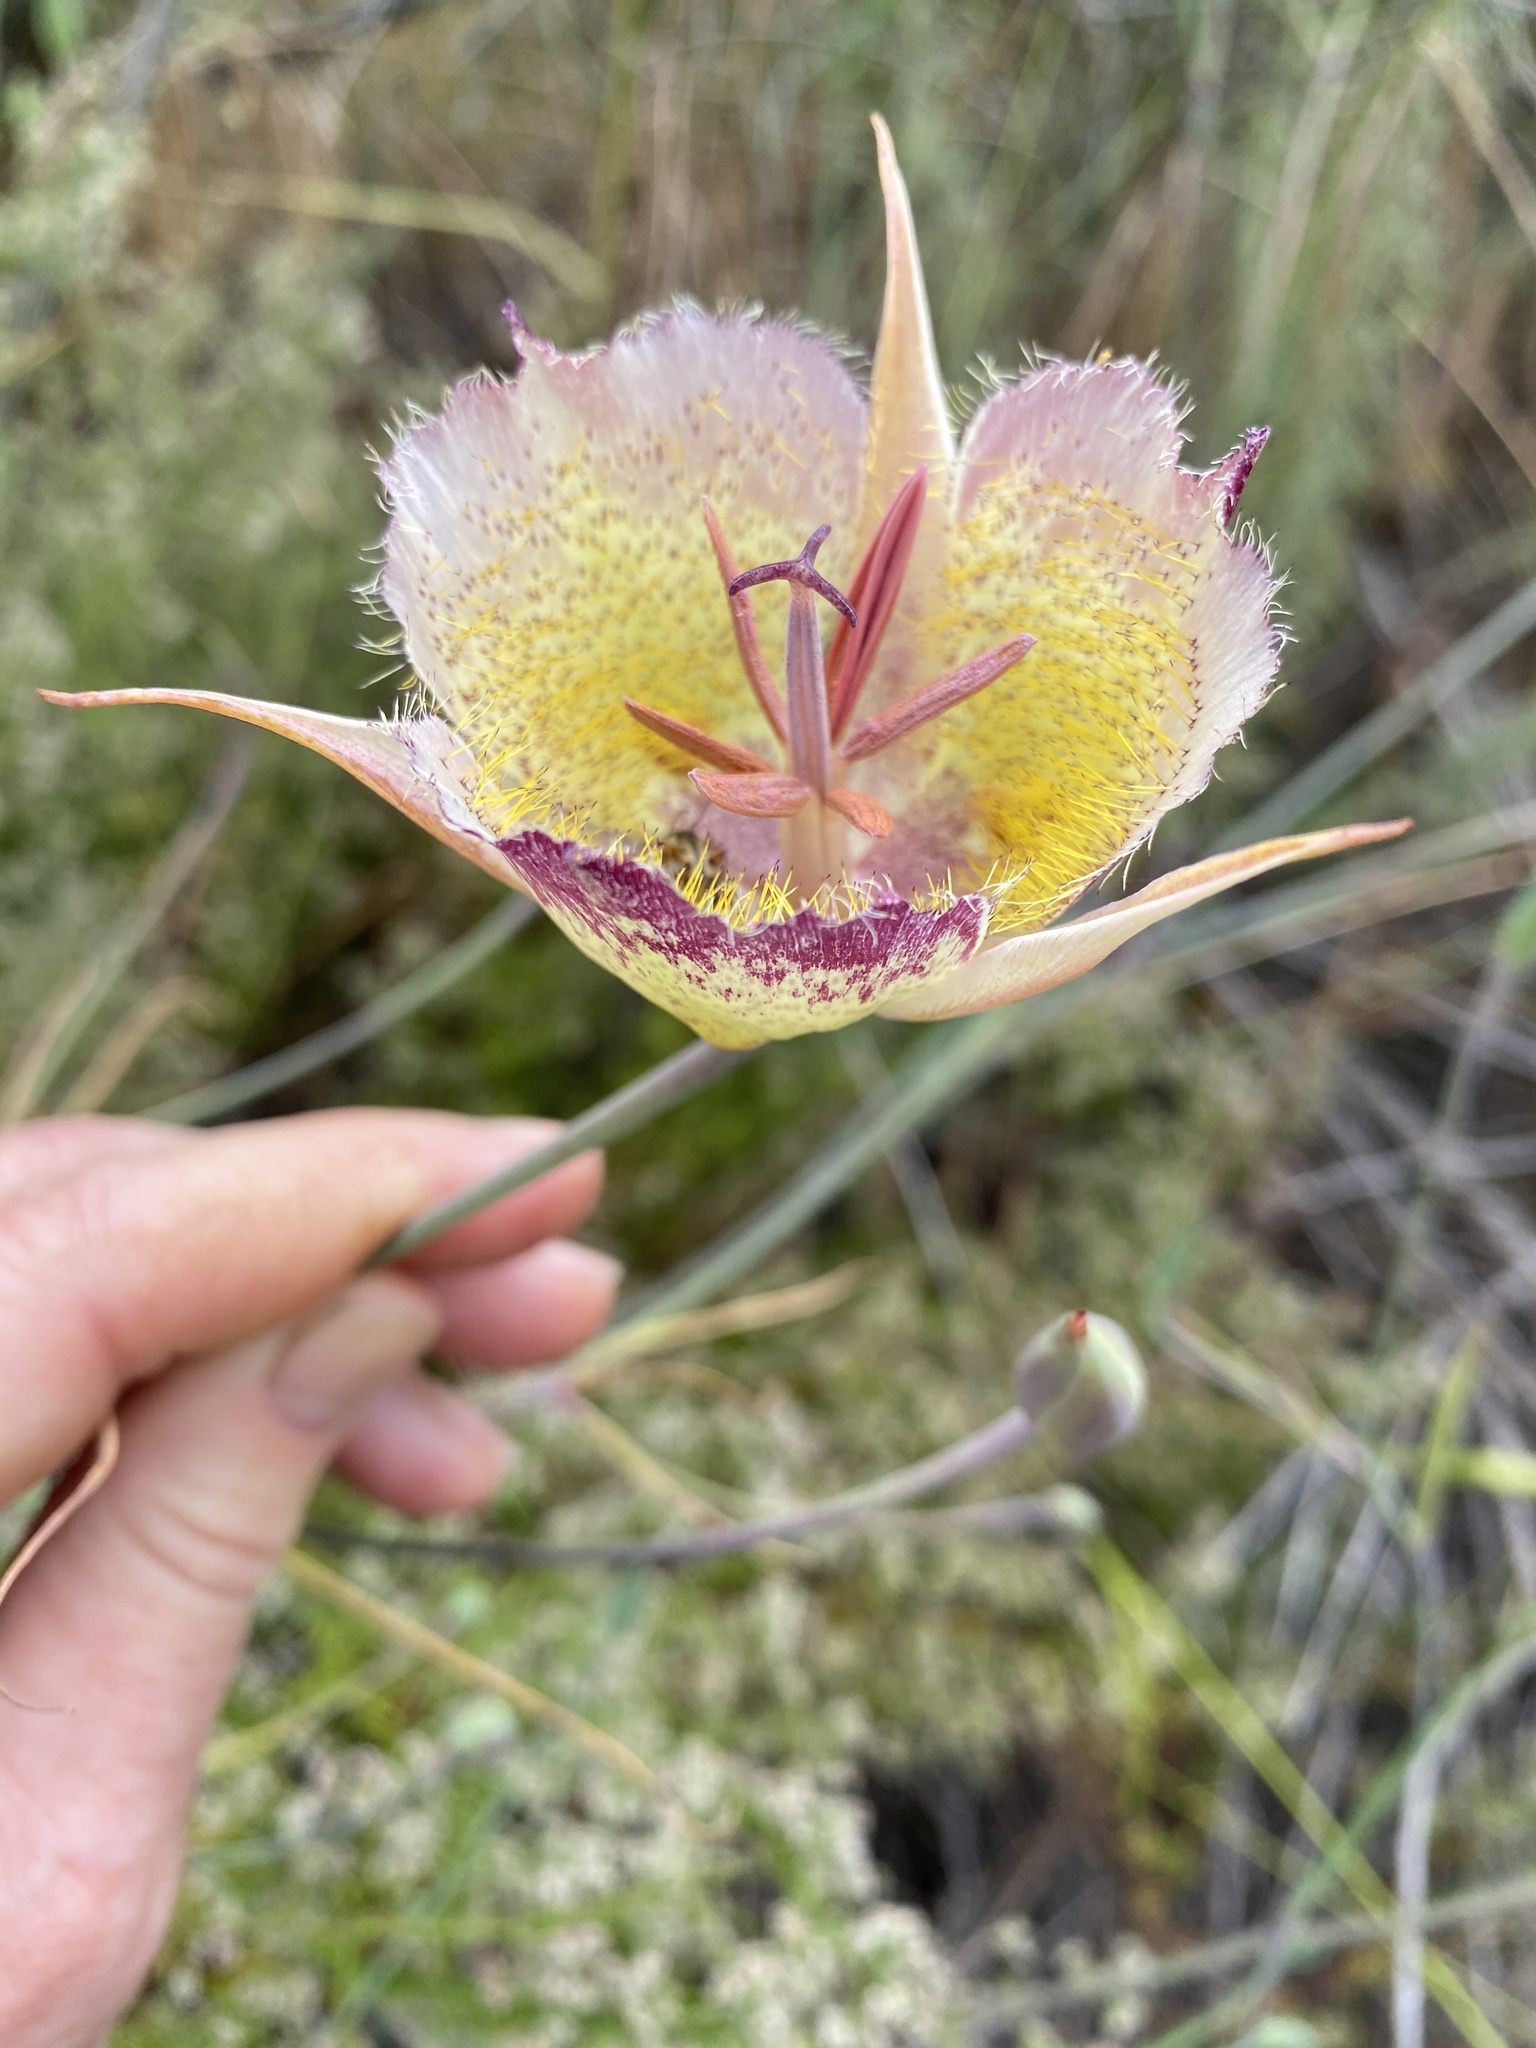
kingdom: Plantae
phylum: Tracheophyta
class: Liliopsida
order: Liliales
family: Liliaceae
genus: Calochortus
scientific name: Calochortus weedii
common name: Weed's mariposa-lily
